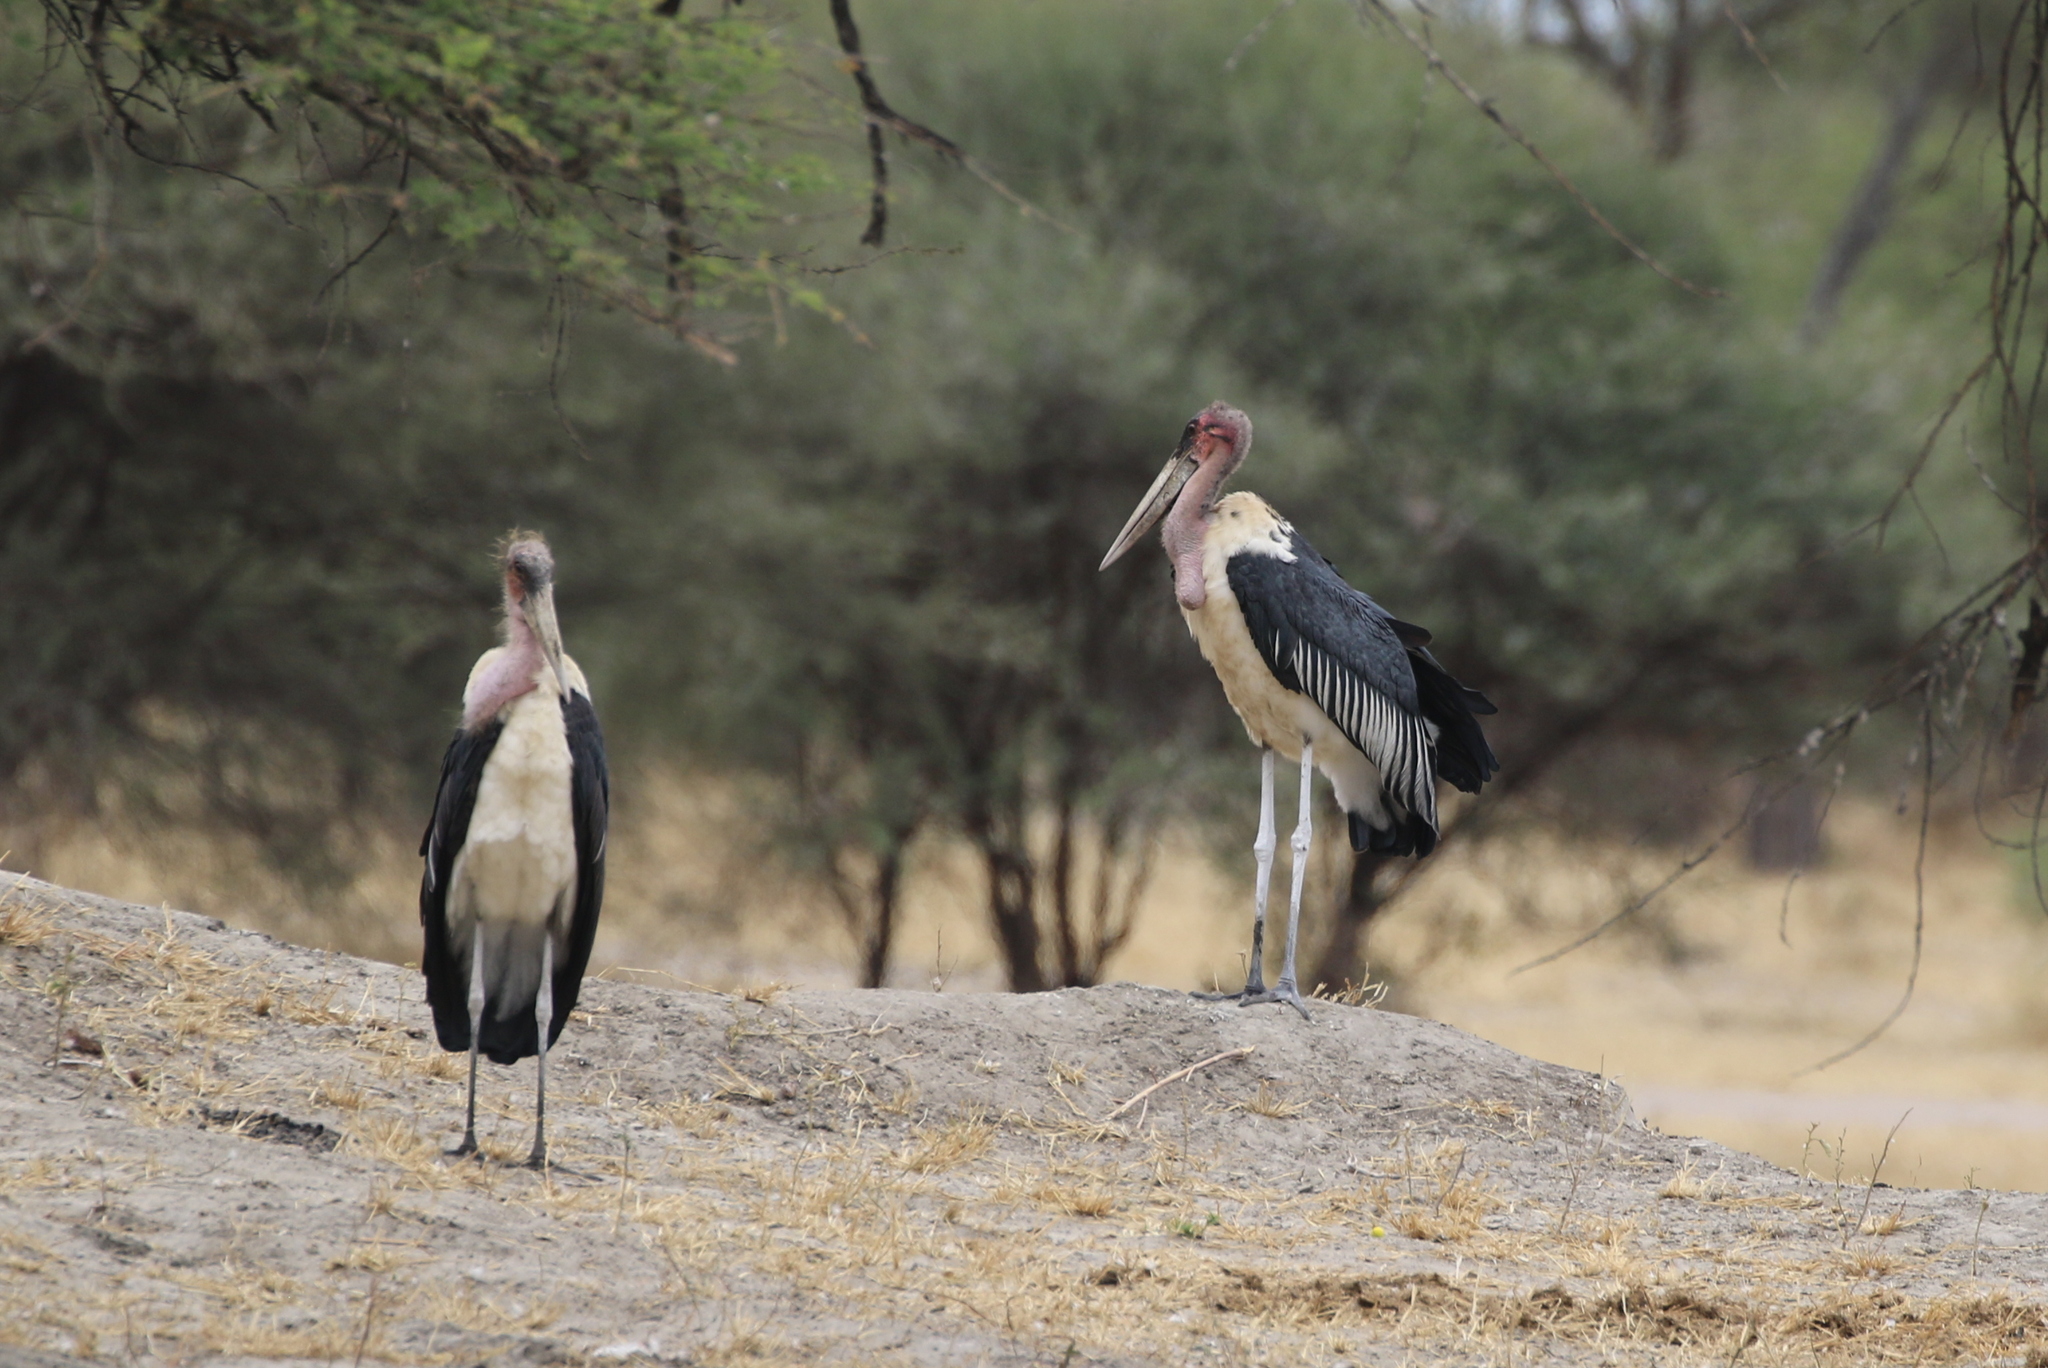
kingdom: Animalia
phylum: Chordata
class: Aves
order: Ciconiiformes
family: Ciconiidae
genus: Leptoptilos
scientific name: Leptoptilos crumenifer
